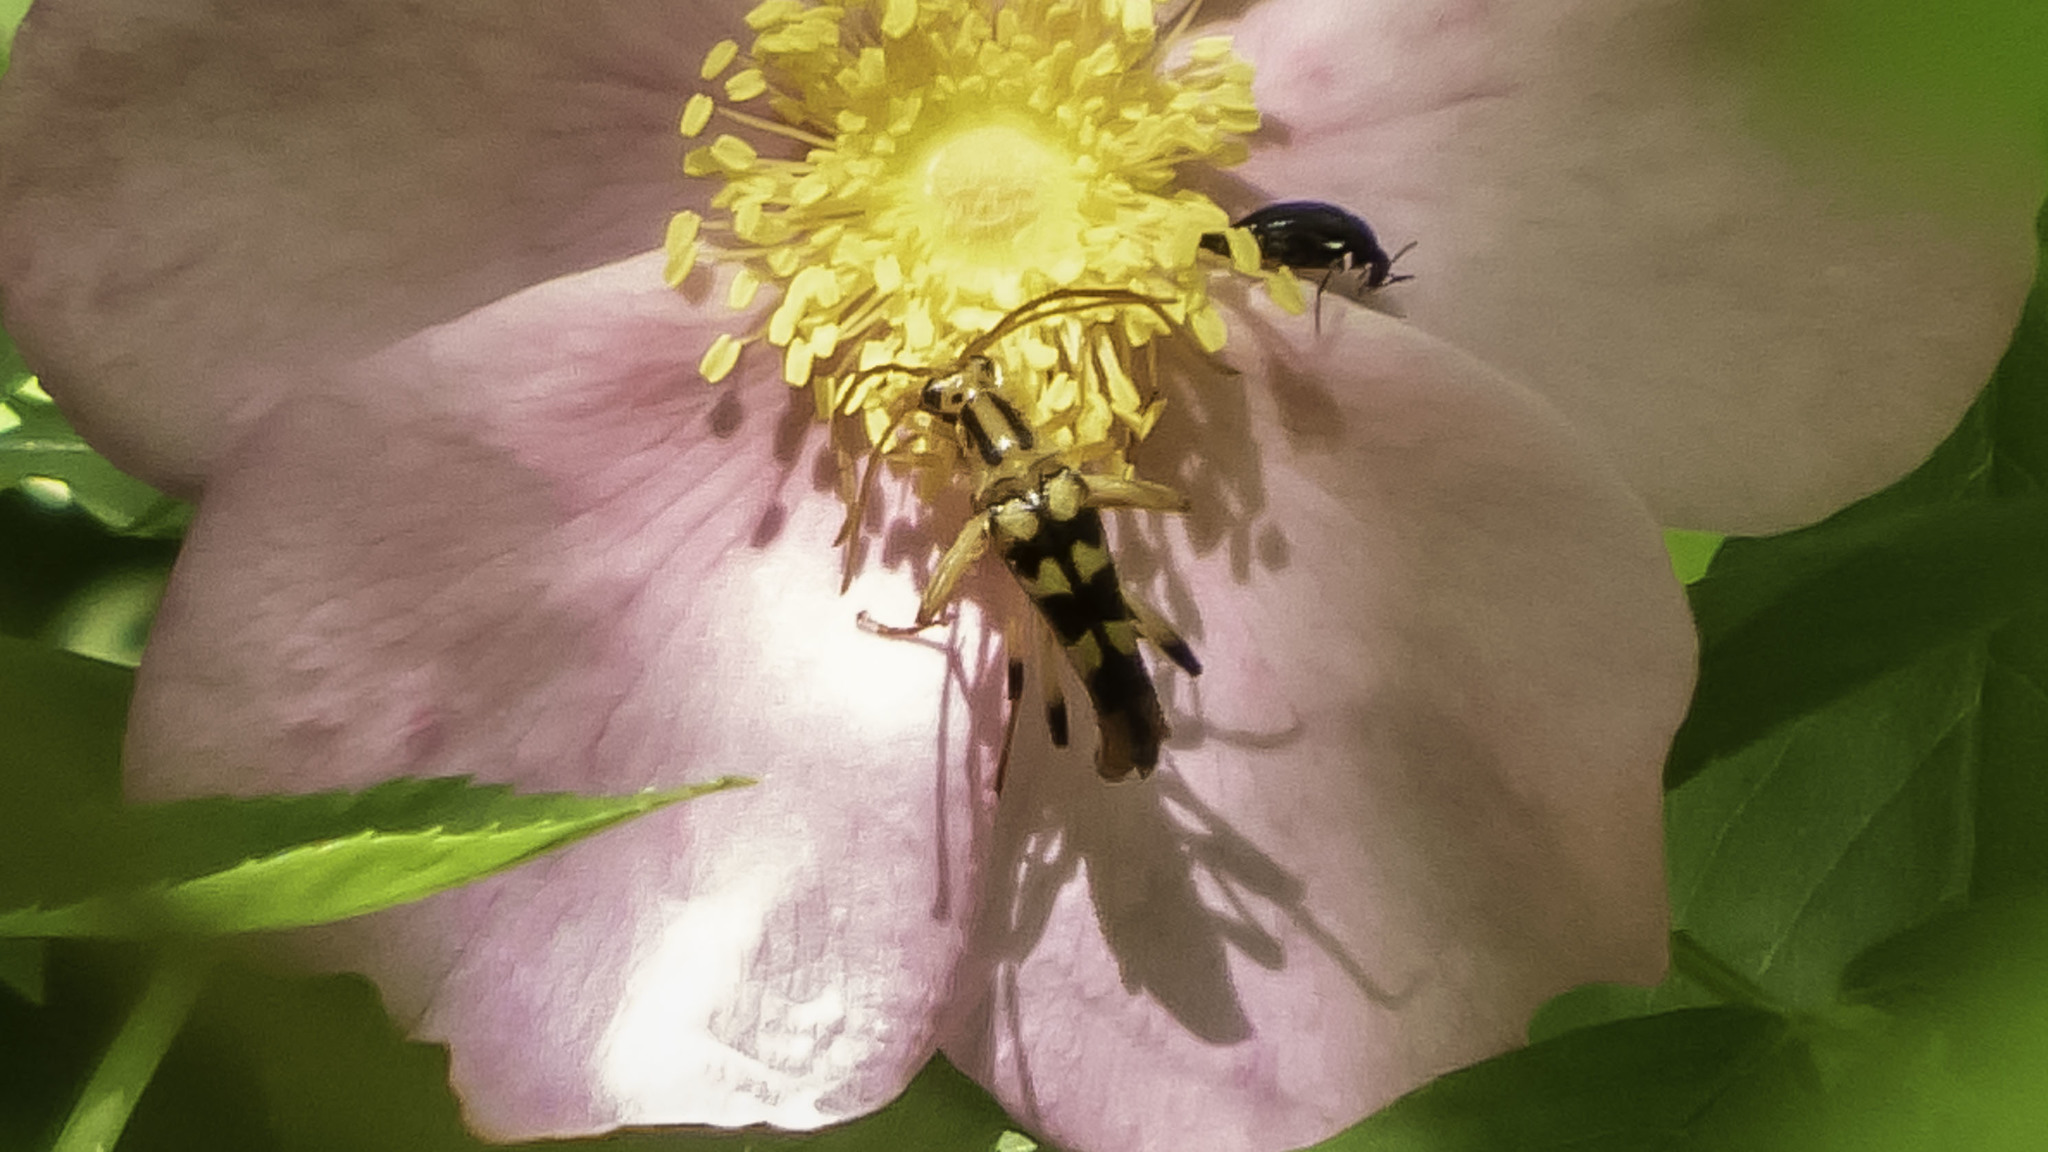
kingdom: Animalia
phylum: Arthropoda
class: Insecta
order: Coleoptera
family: Cerambycidae
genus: Strangalia
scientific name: Strangalia luteicornis
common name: Yellow-horned flower longhorn beetle
